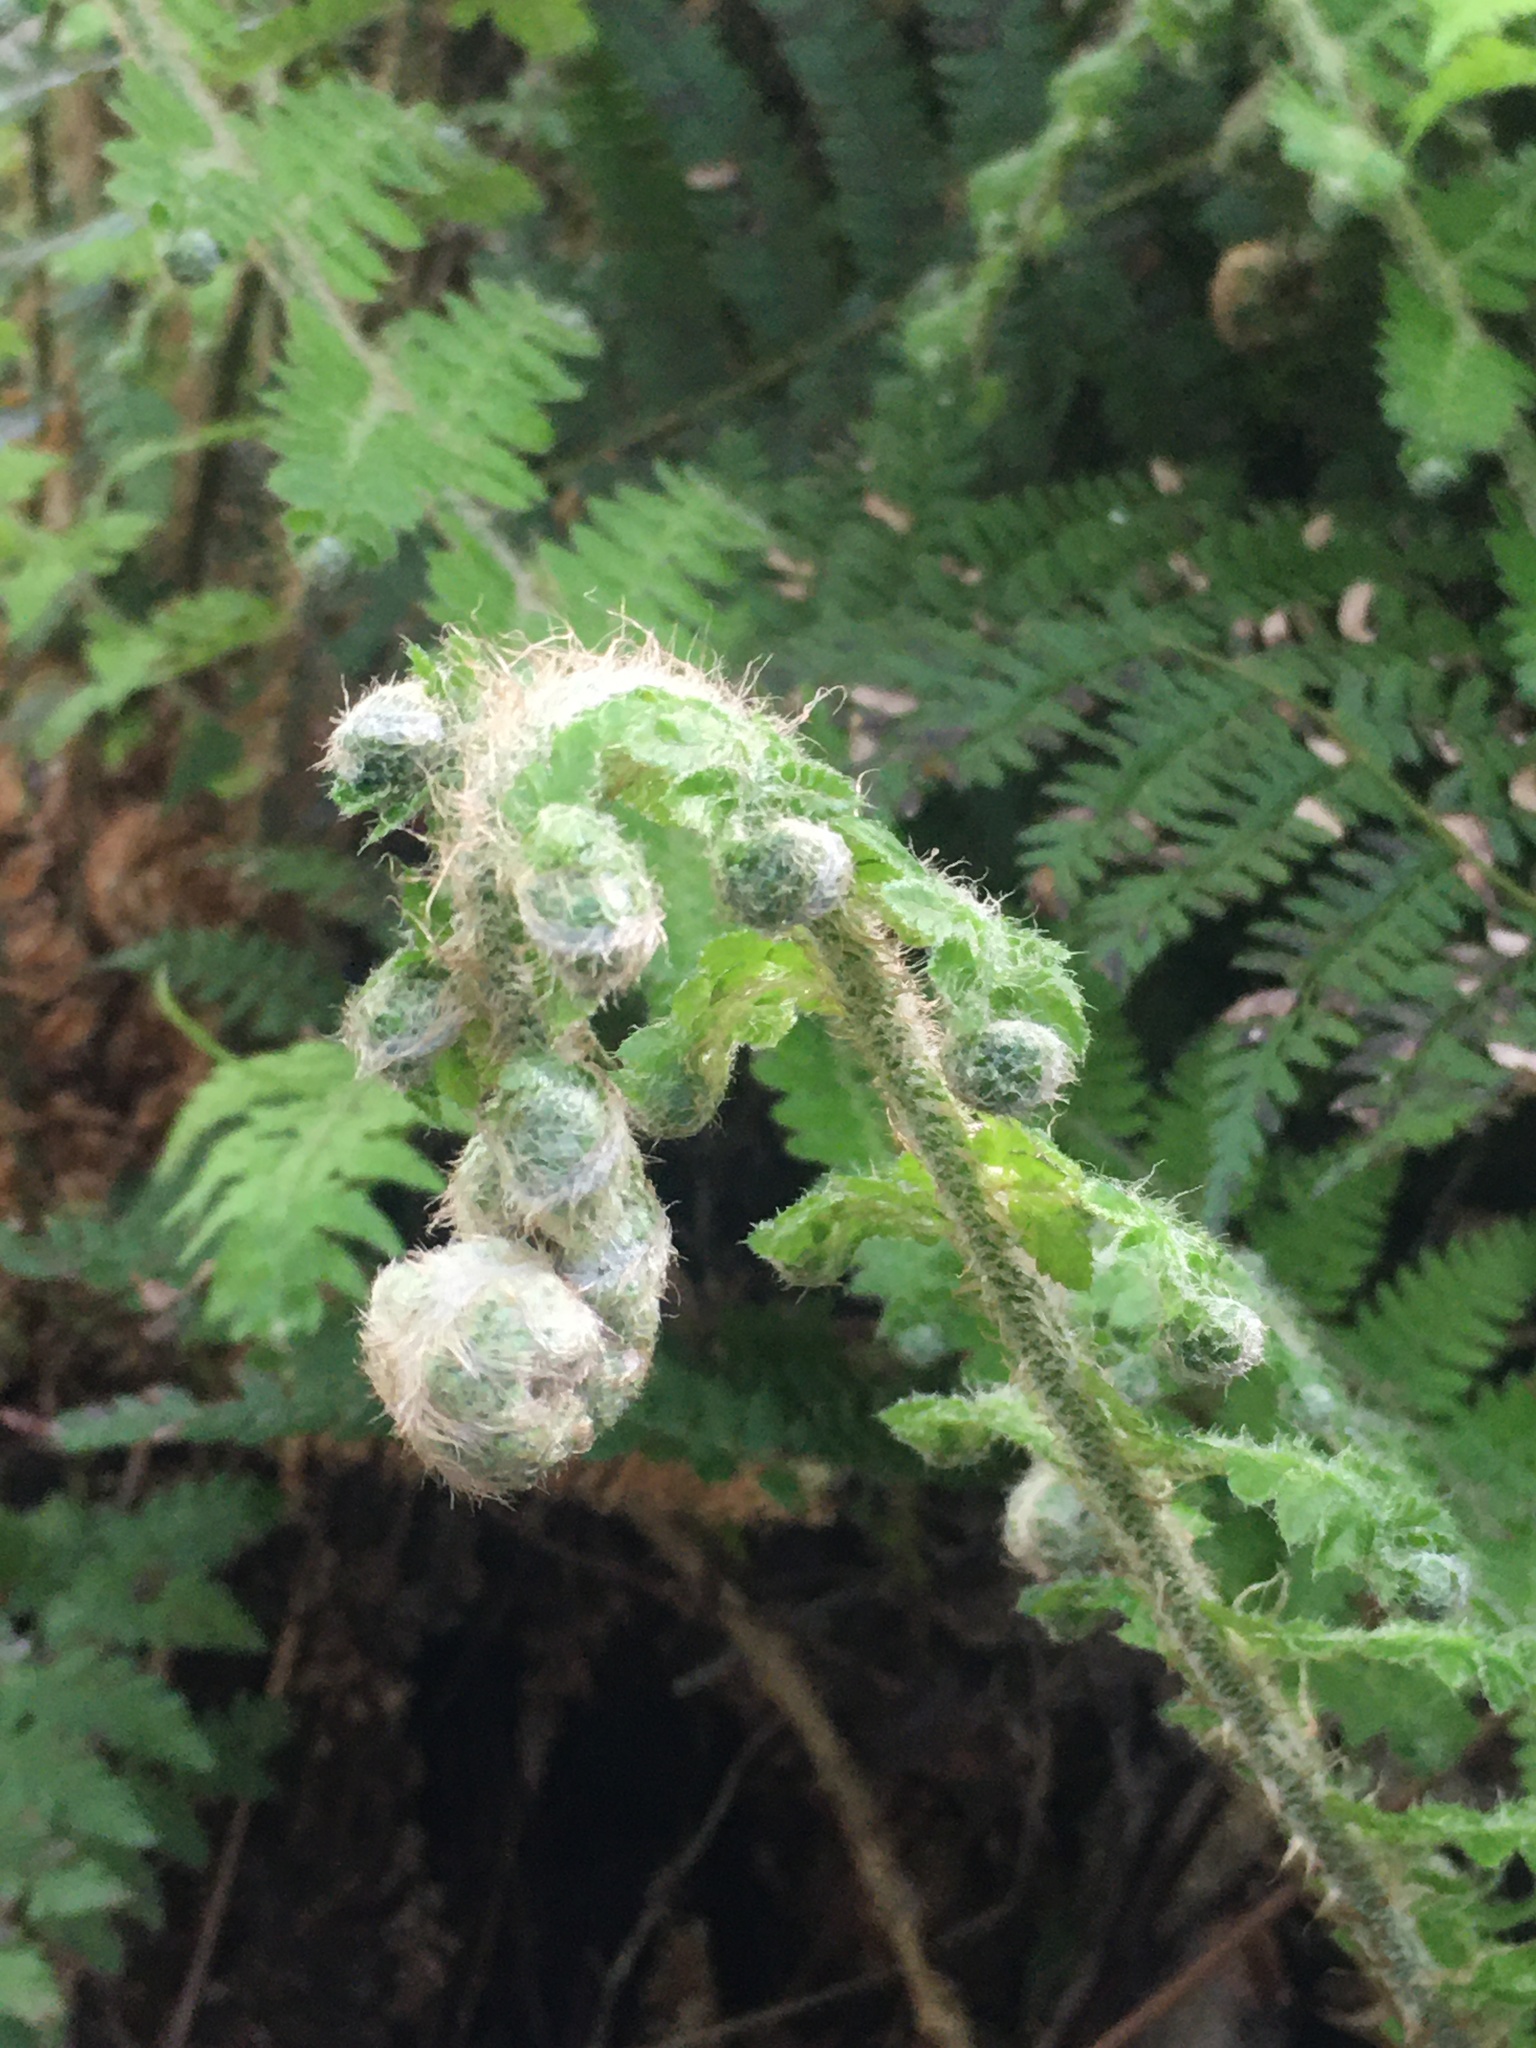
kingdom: Plantae
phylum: Tracheophyta
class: Polypodiopsida
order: Polypodiales
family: Dryopteridaceae
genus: Polystichum
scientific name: Polystichum setiferum
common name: Soft shield-fern
